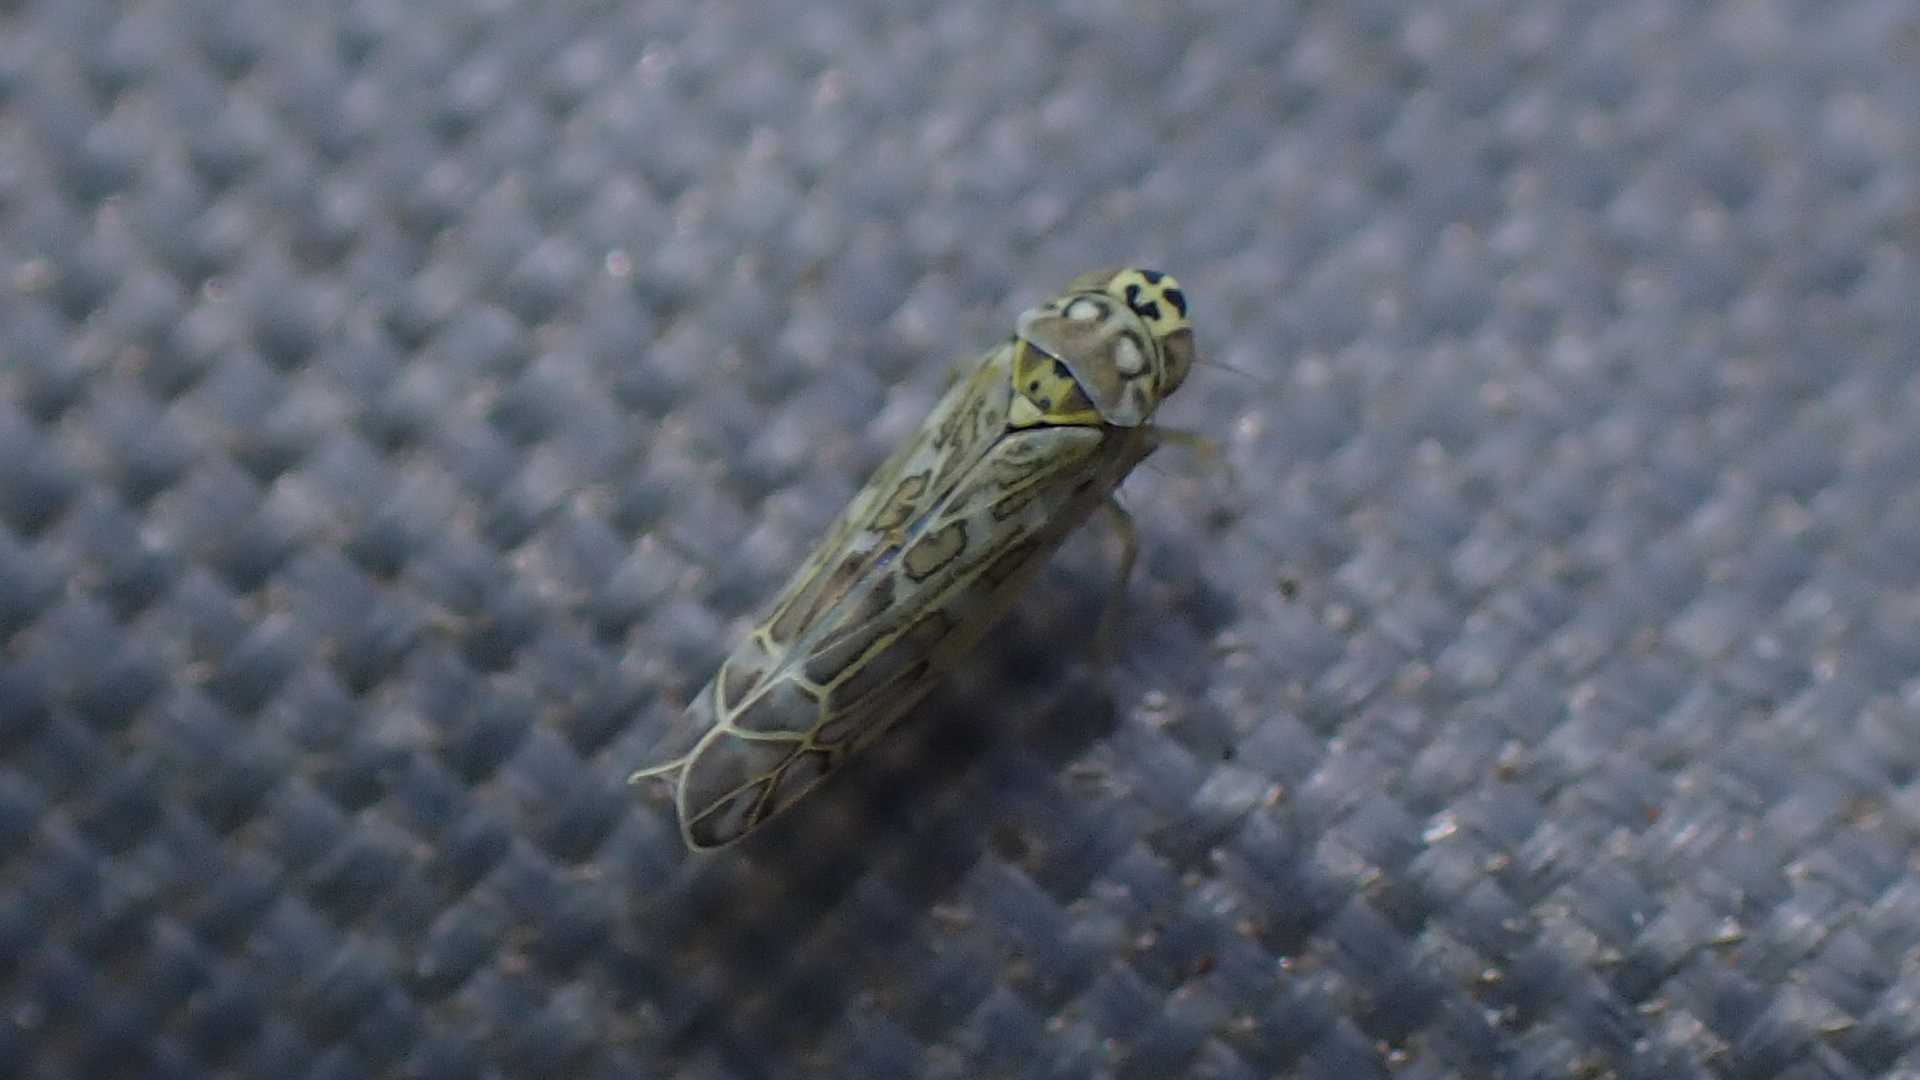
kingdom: Animalia
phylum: Arthropoda
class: Insecta
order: Hemiptera
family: Cicadellidae
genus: Eupteryx
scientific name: Eupteryx decemnotata
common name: Ligurian leafhopper
